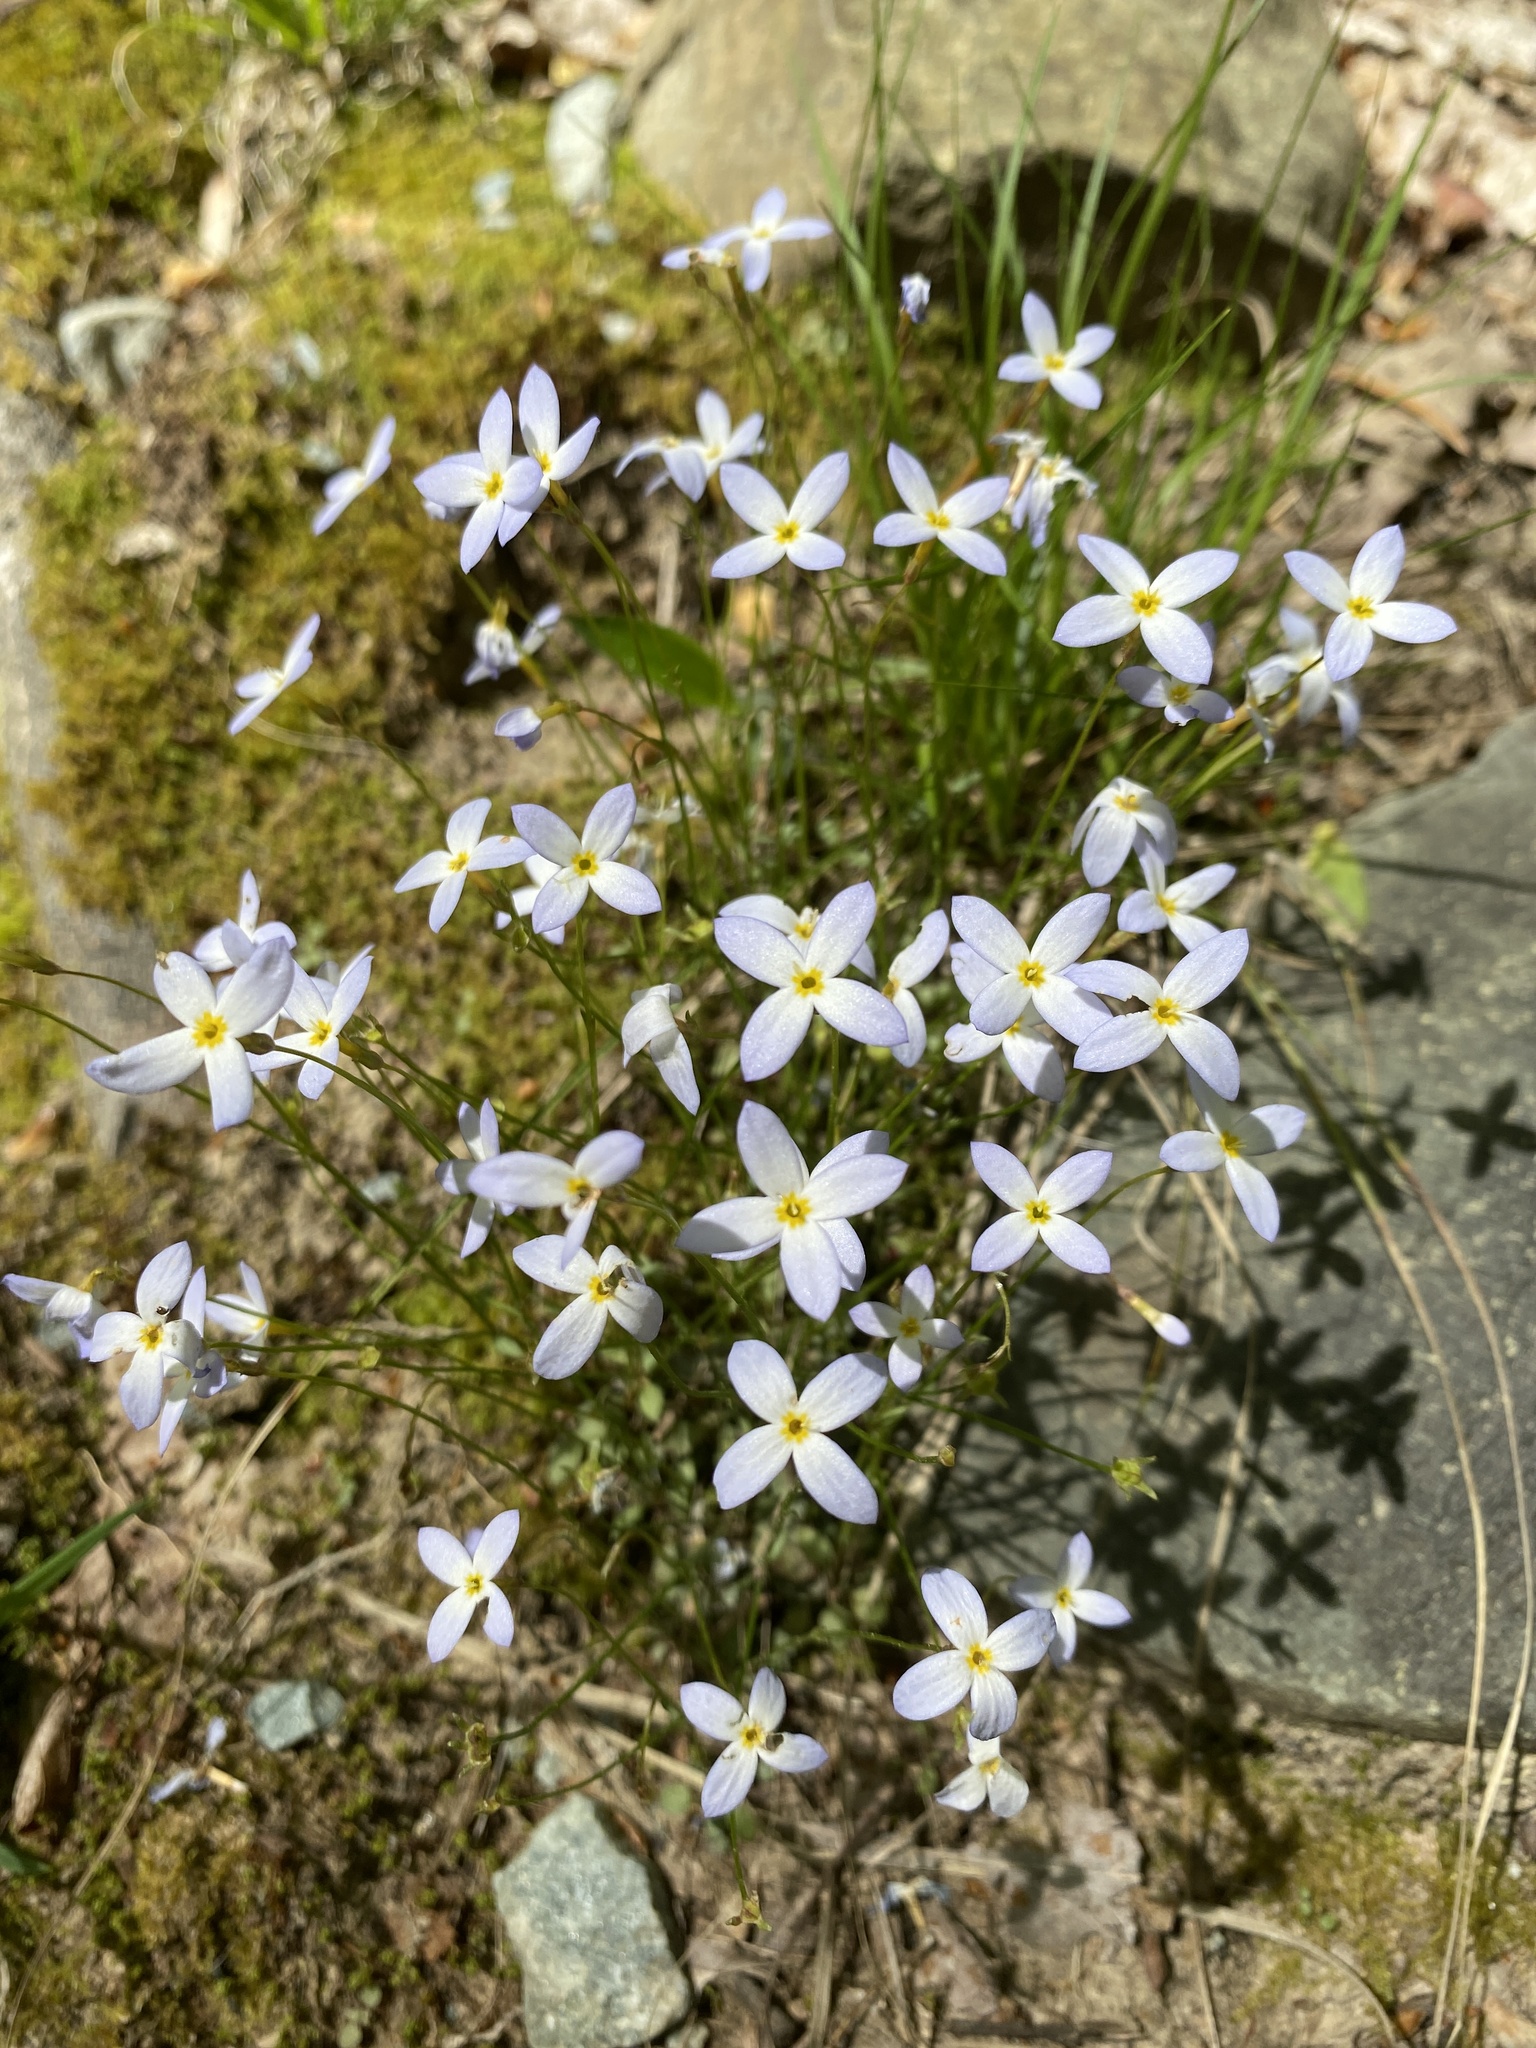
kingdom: Plantae
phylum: Tracheophyta
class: Magnoliopsida
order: Gentianales
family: Rubiaceae
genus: Houstonia
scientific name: Houstonia caerulea
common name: Bluets
